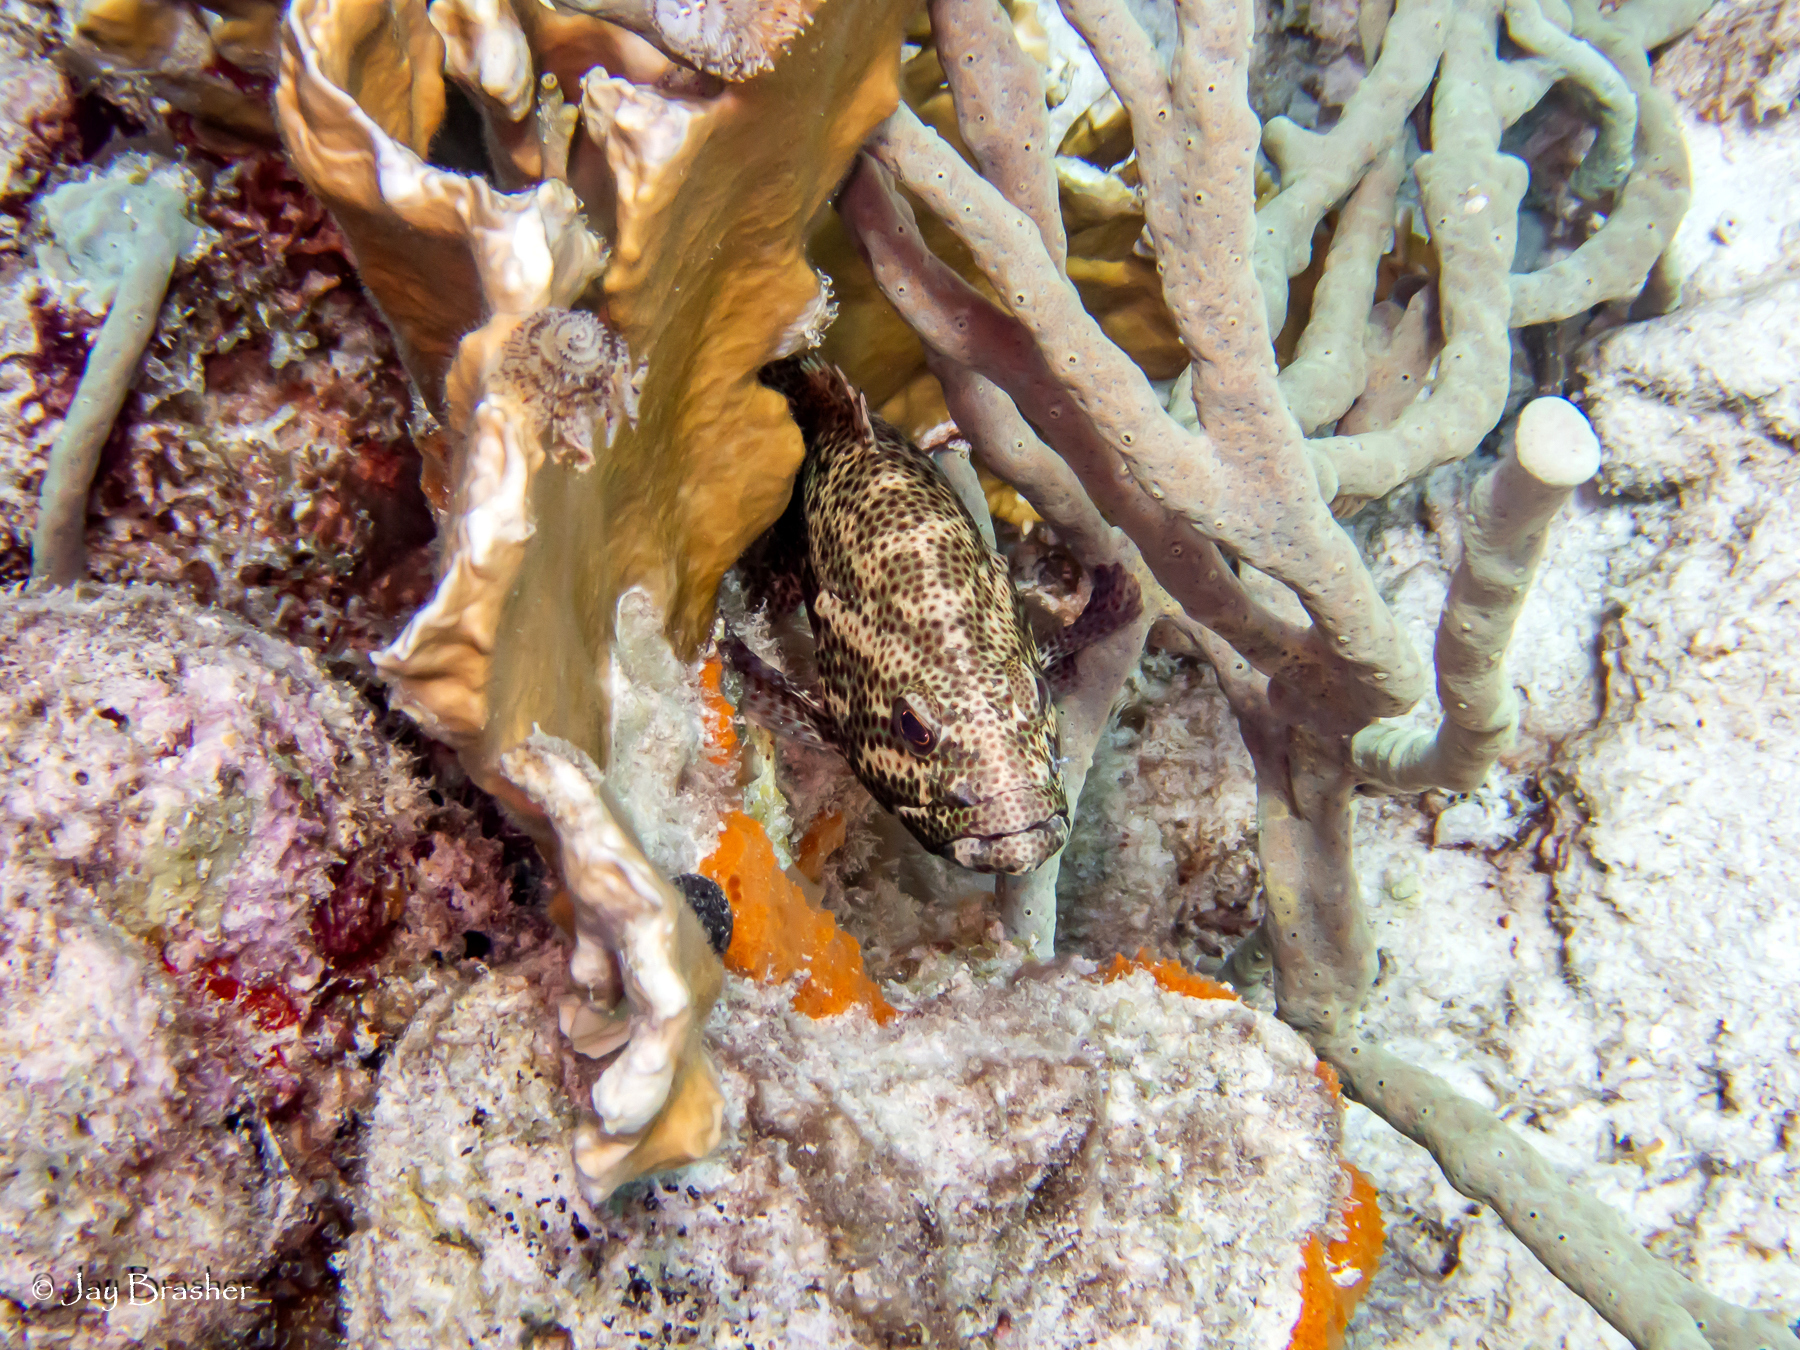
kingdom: Animalia
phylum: Chordata
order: Perciformes
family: Serranidae
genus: Cephalopholis
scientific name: Cephalopholis cruentata
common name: Graysby
